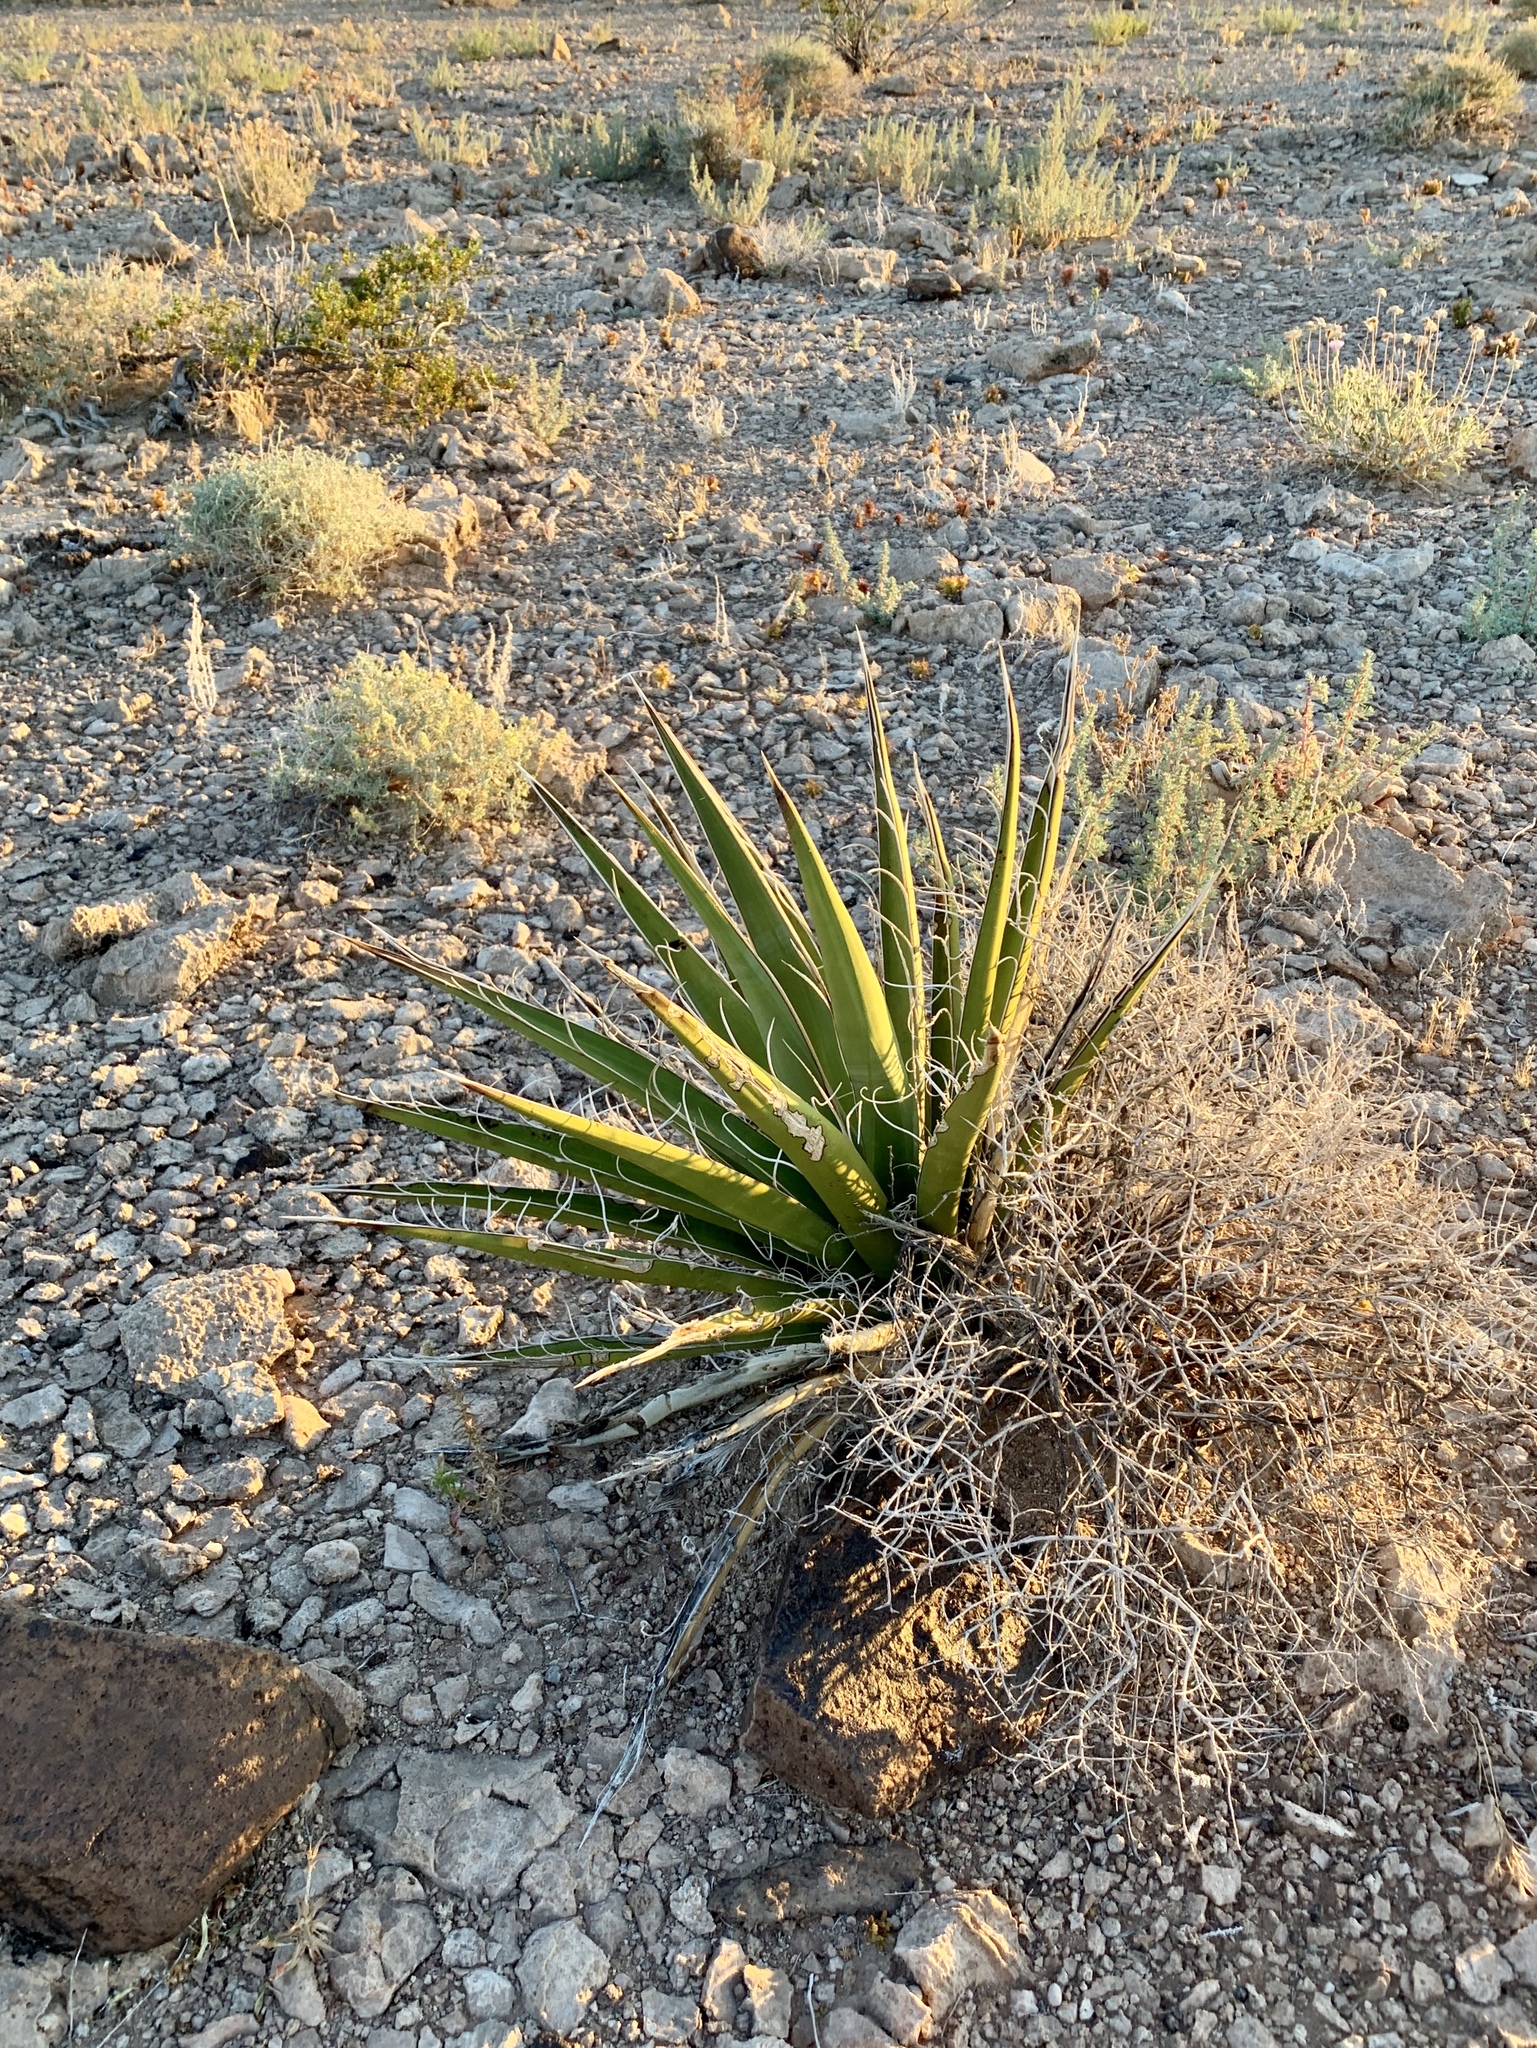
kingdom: Plantae
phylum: Tracheophyta
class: Liliopsida
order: Asparagales
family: Asparagaceae
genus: Yucca
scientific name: Yucca baccata
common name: Banana yucca
